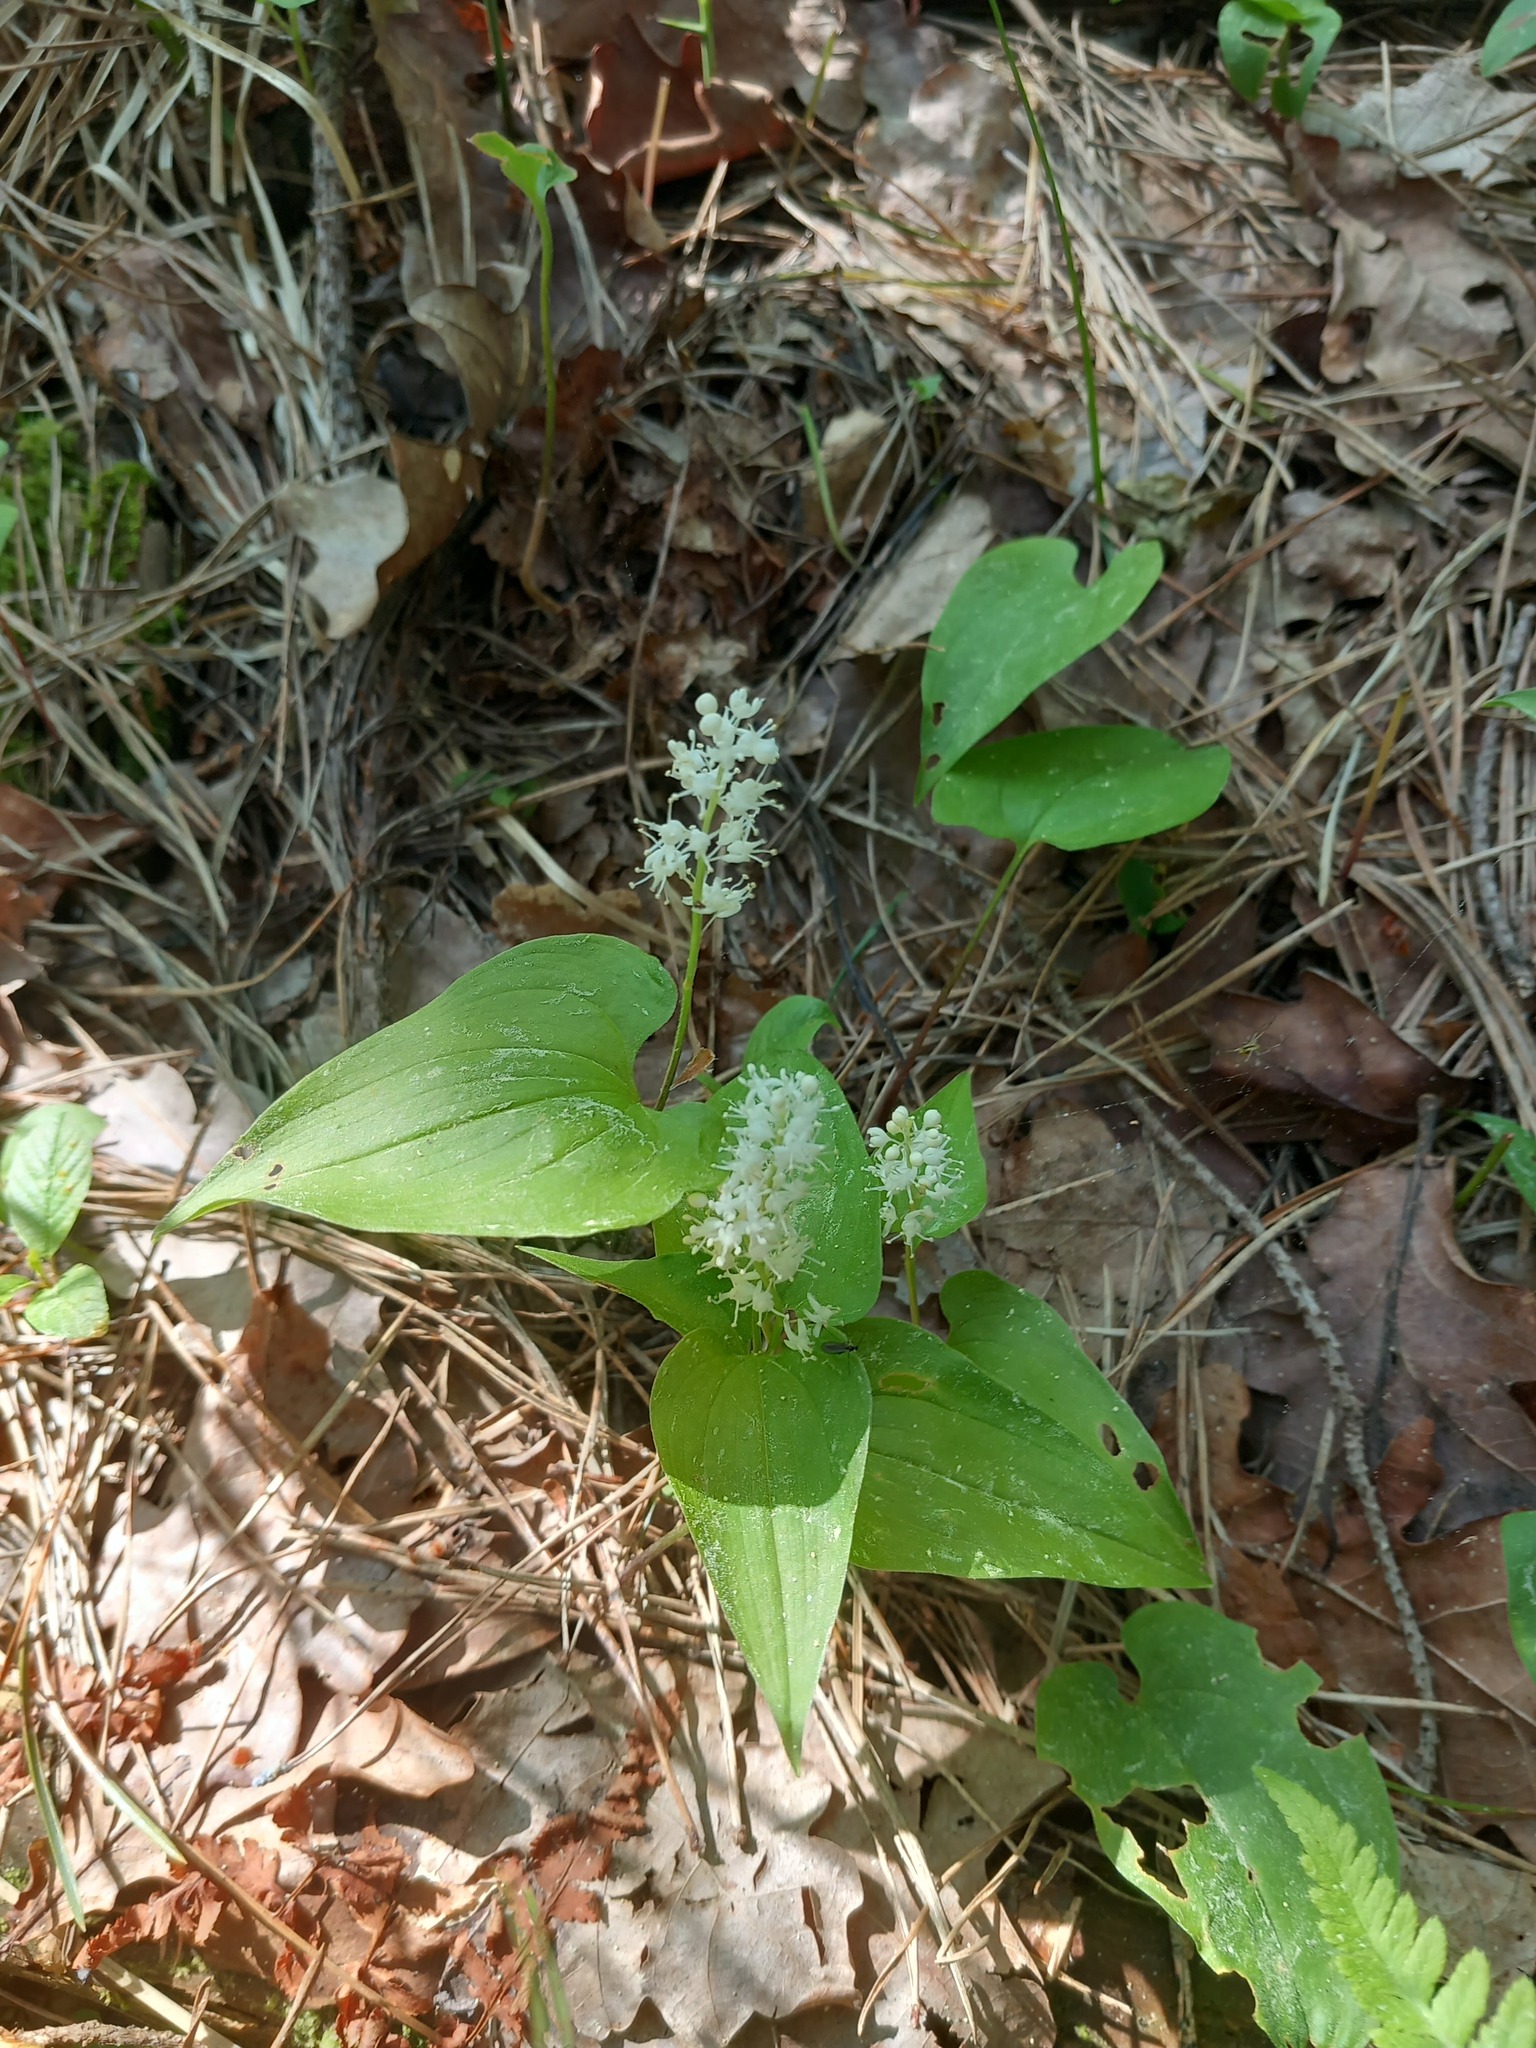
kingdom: Plantae
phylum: Tracheophyta
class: Liliopsida
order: Asparagales
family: Asparagaceae
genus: Maianthemum
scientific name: Maianthemum bifolium
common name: May lily
